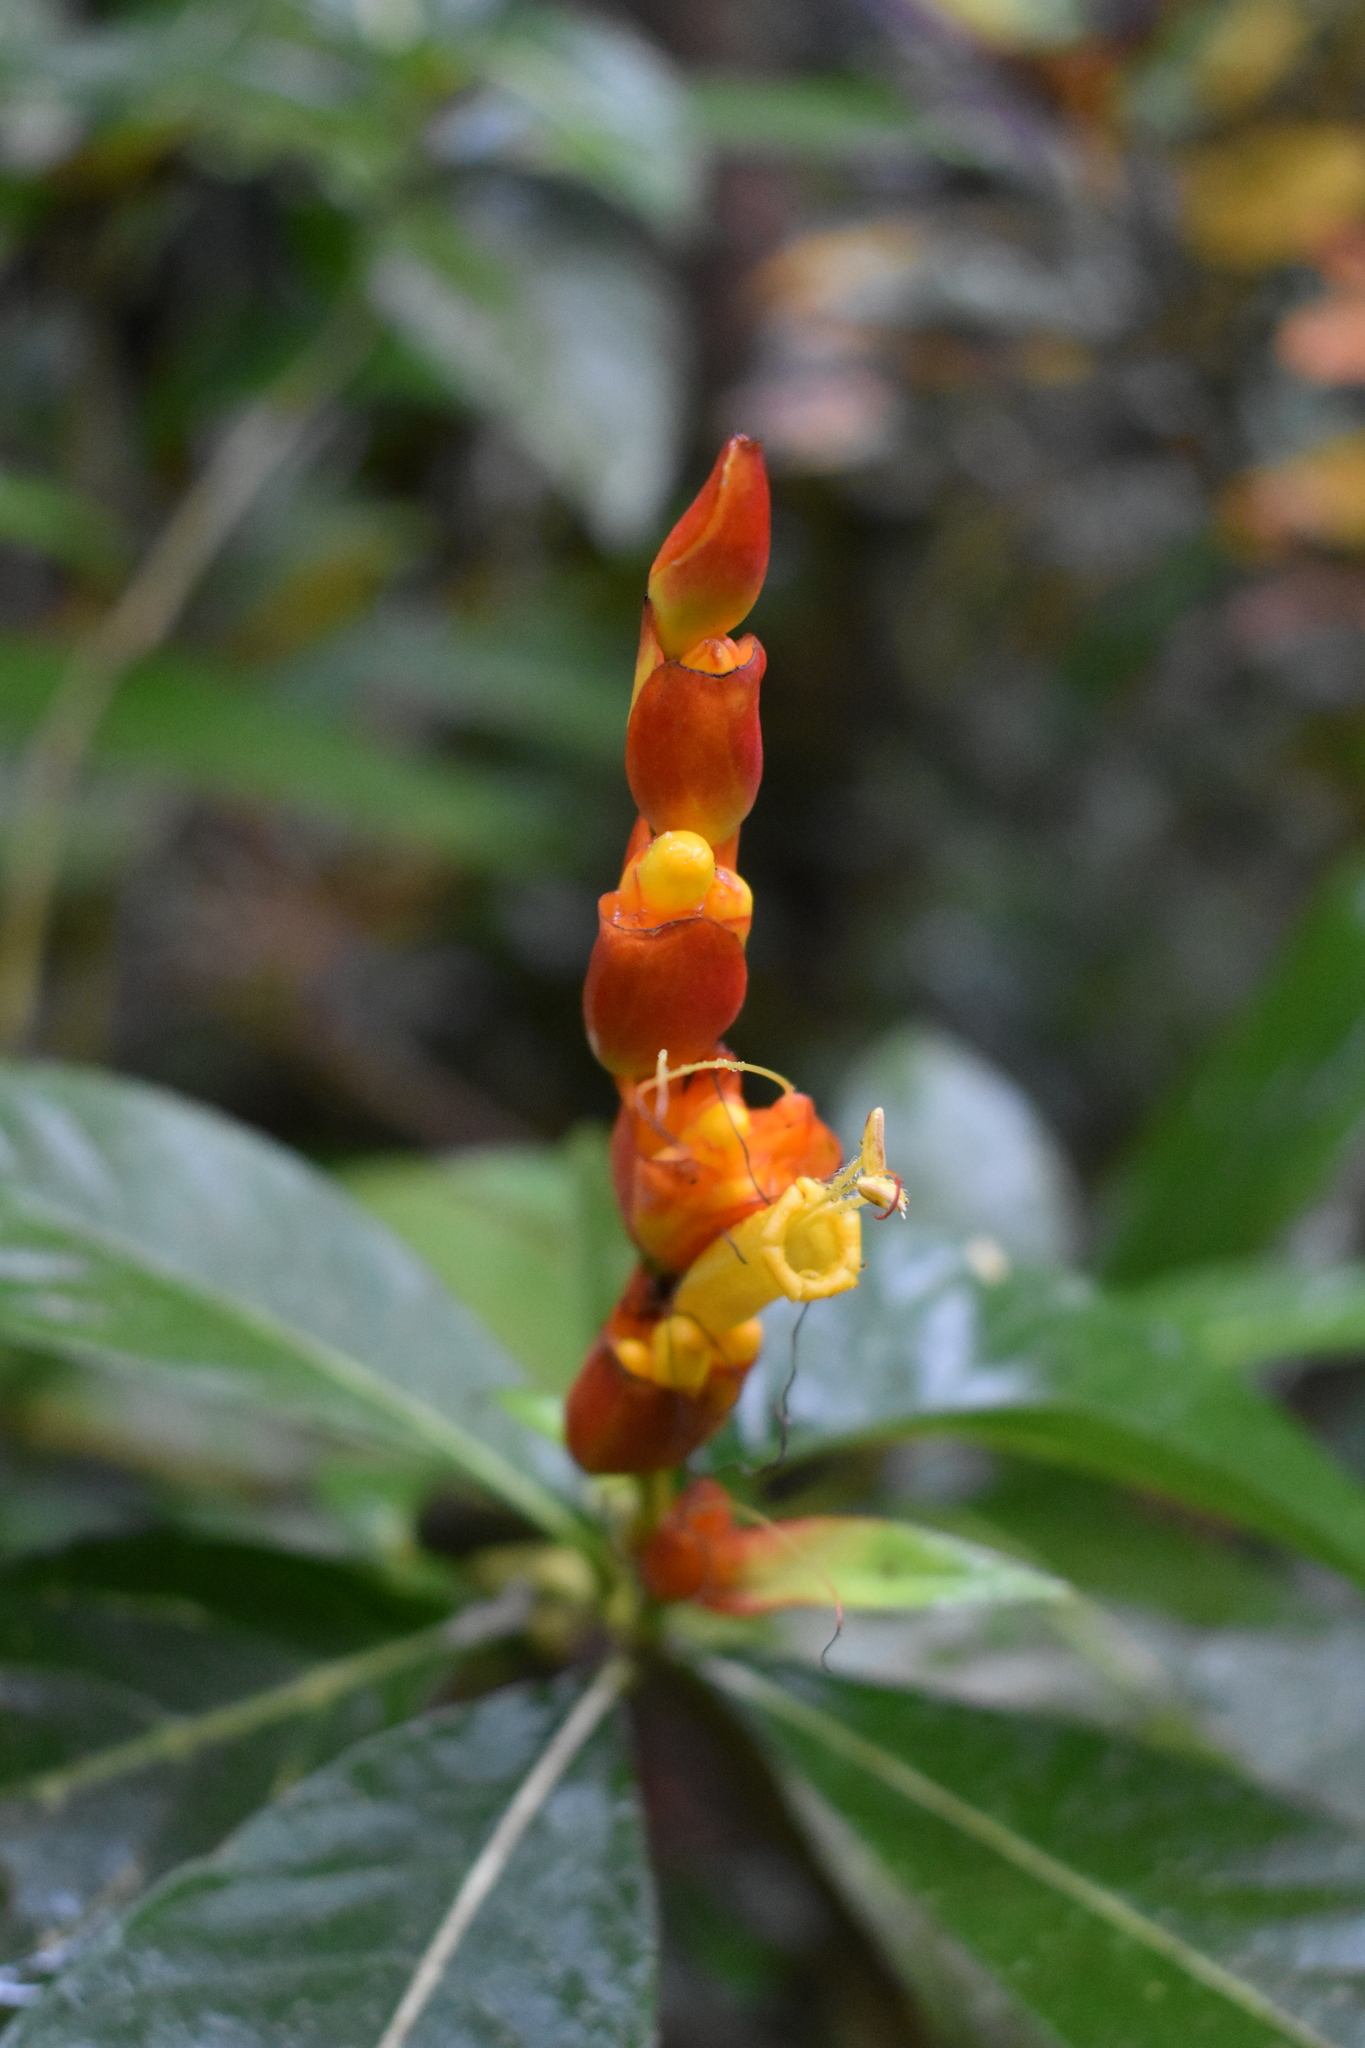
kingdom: Plantae
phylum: Tracheophyta
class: Magnoliopsida
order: Lamiales
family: Acanthaceae
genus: Sanchezia
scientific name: Sanchezia oblonga
